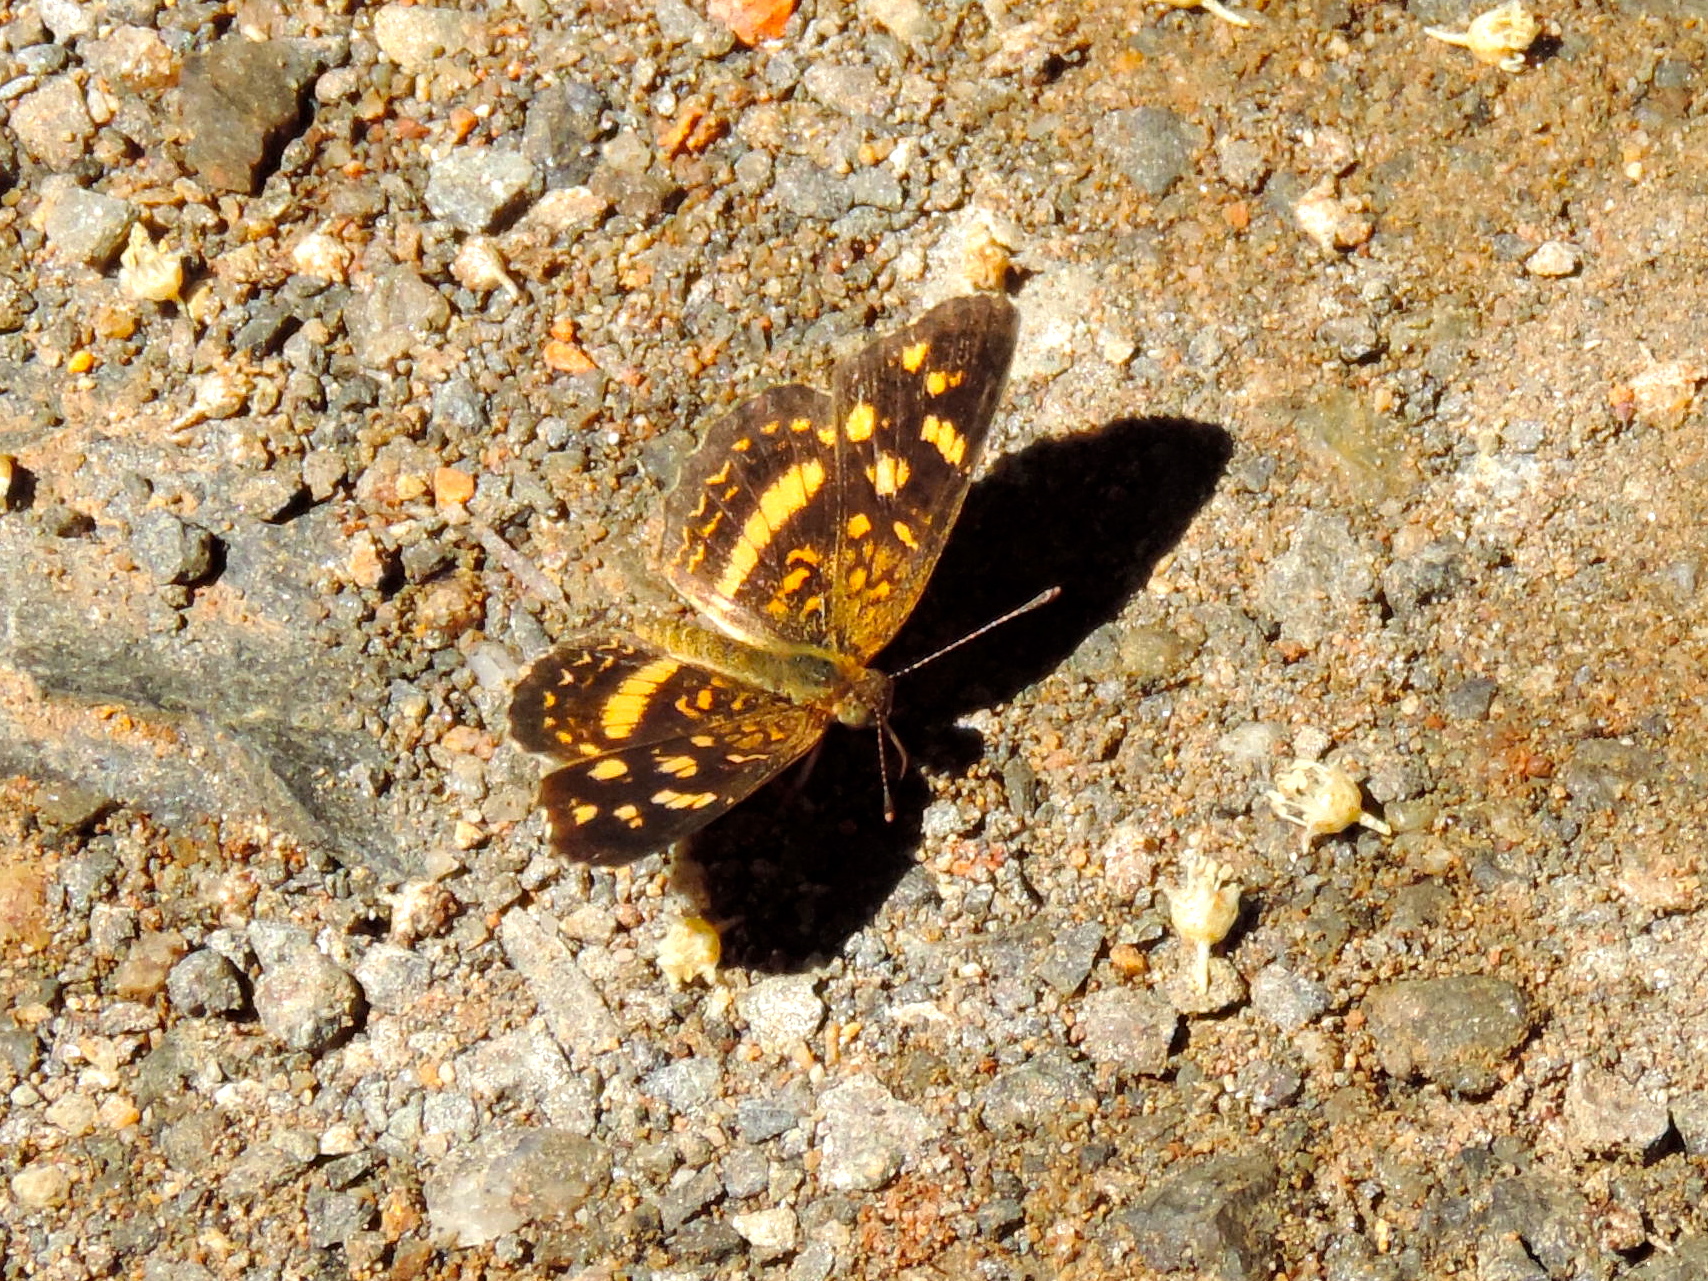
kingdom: Animalia
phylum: Arthropoda
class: Insecta
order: Lepidoptera
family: Nymphalidae
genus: Anthanassa
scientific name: Anthanassa tulcis
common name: Pale-banded crescent
